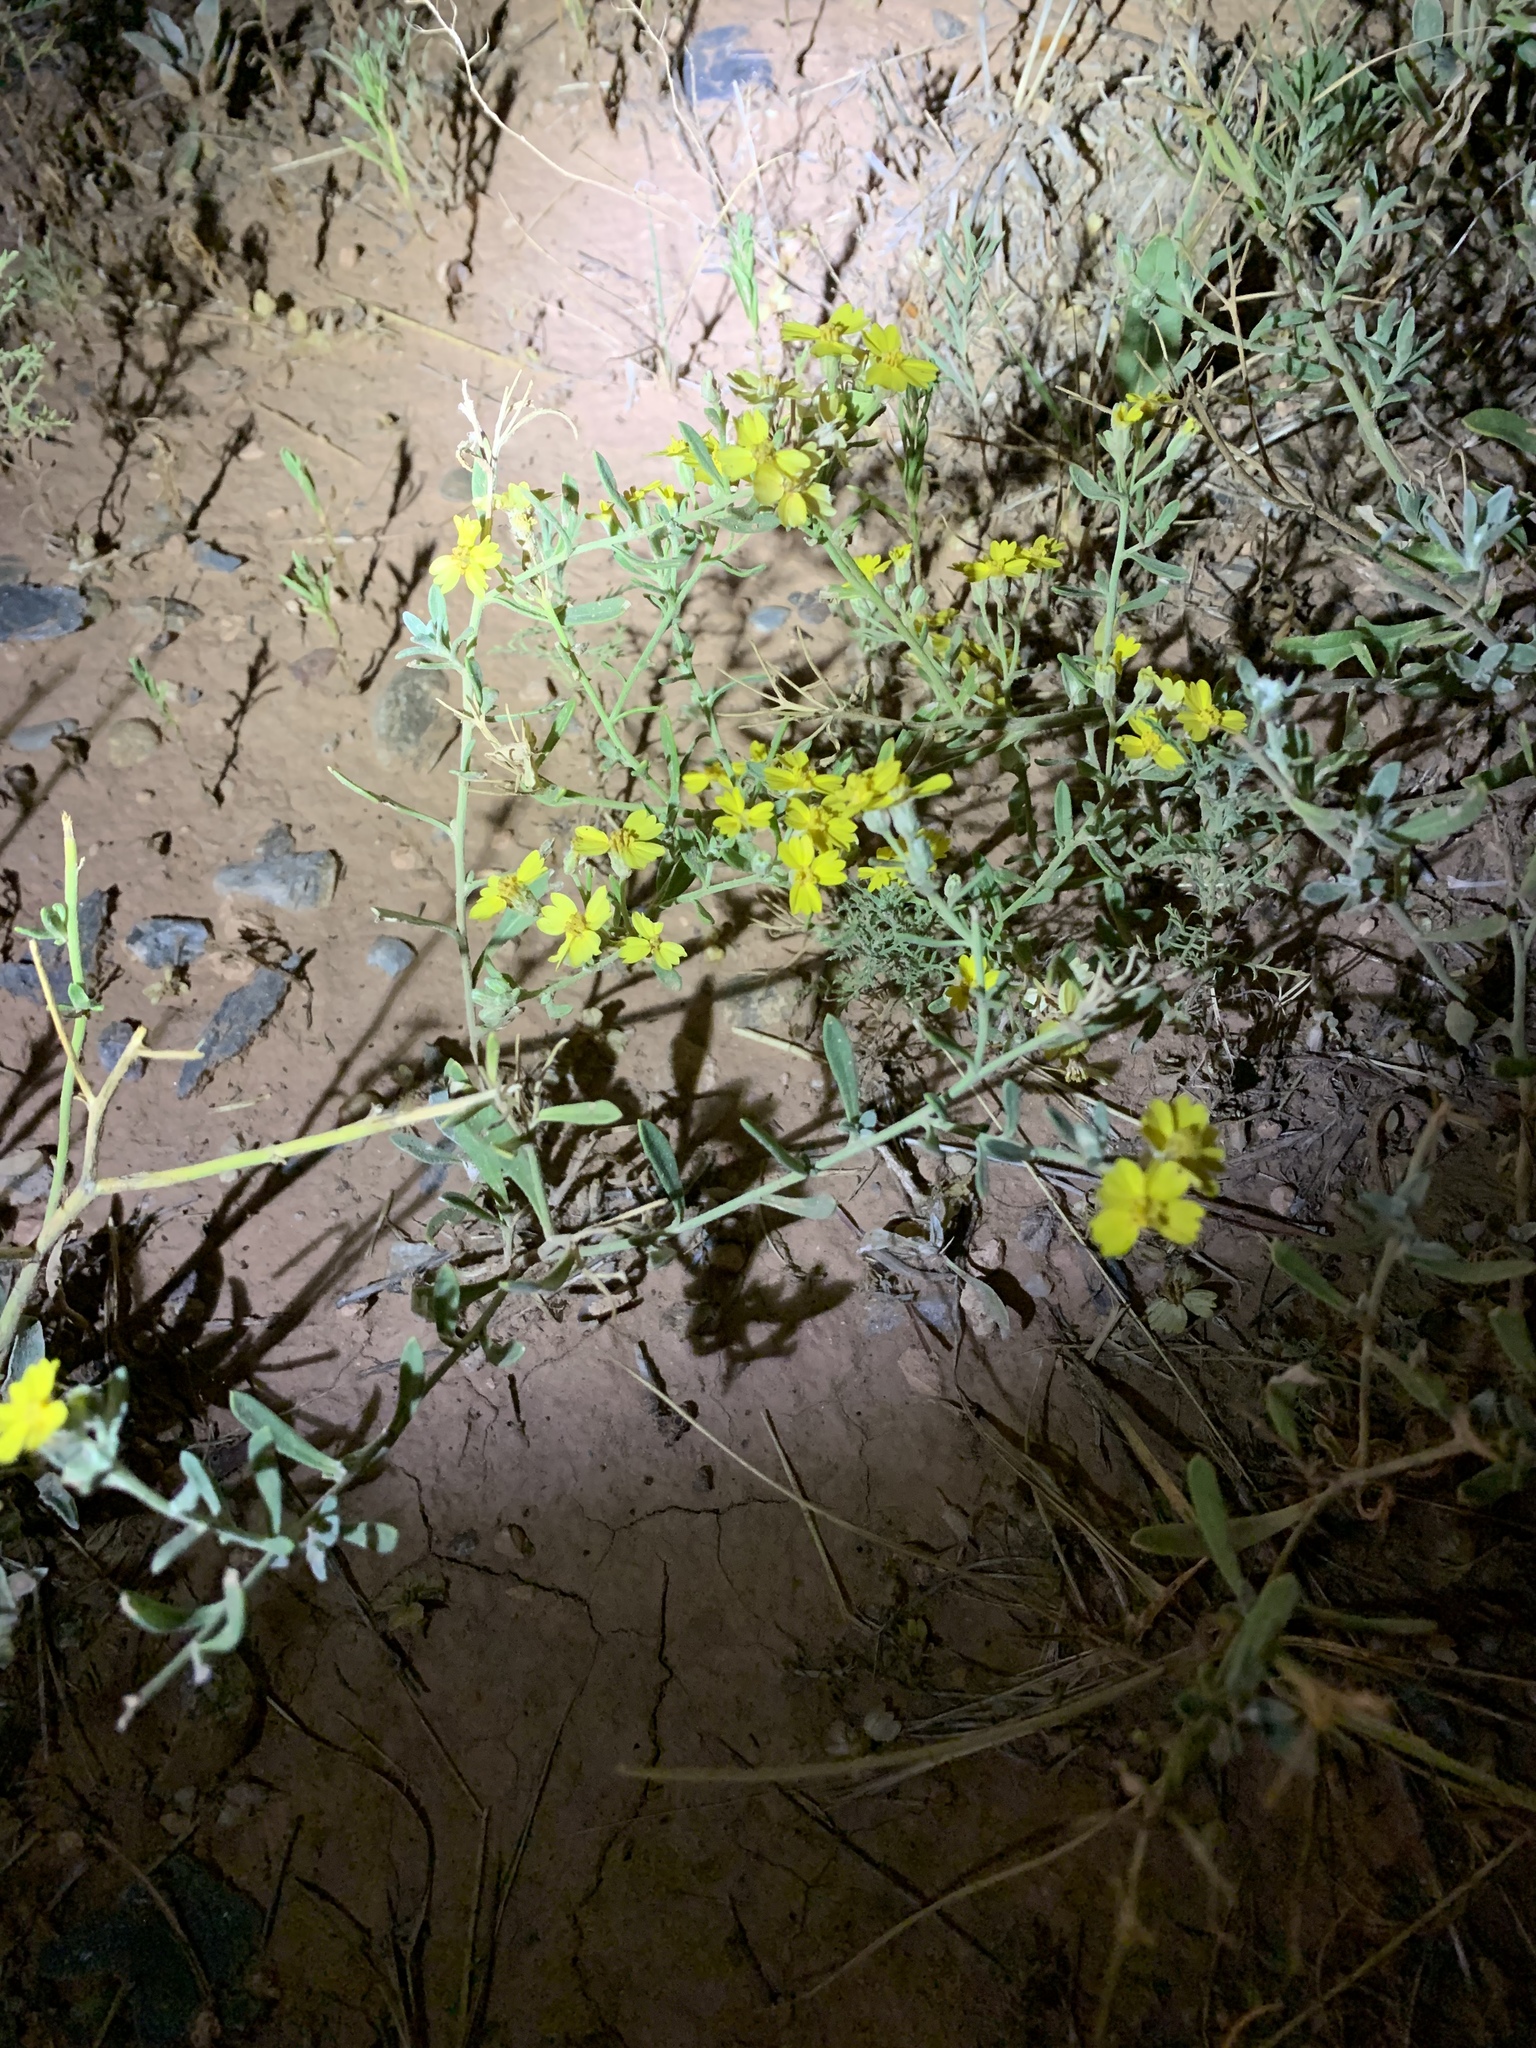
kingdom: Plantae
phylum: Tracheophyta
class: Magnoliopsida
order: Asterales
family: Asteraceae
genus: Psilostrophe
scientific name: Psilostrophe tagetina
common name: Marigold paper-flower
